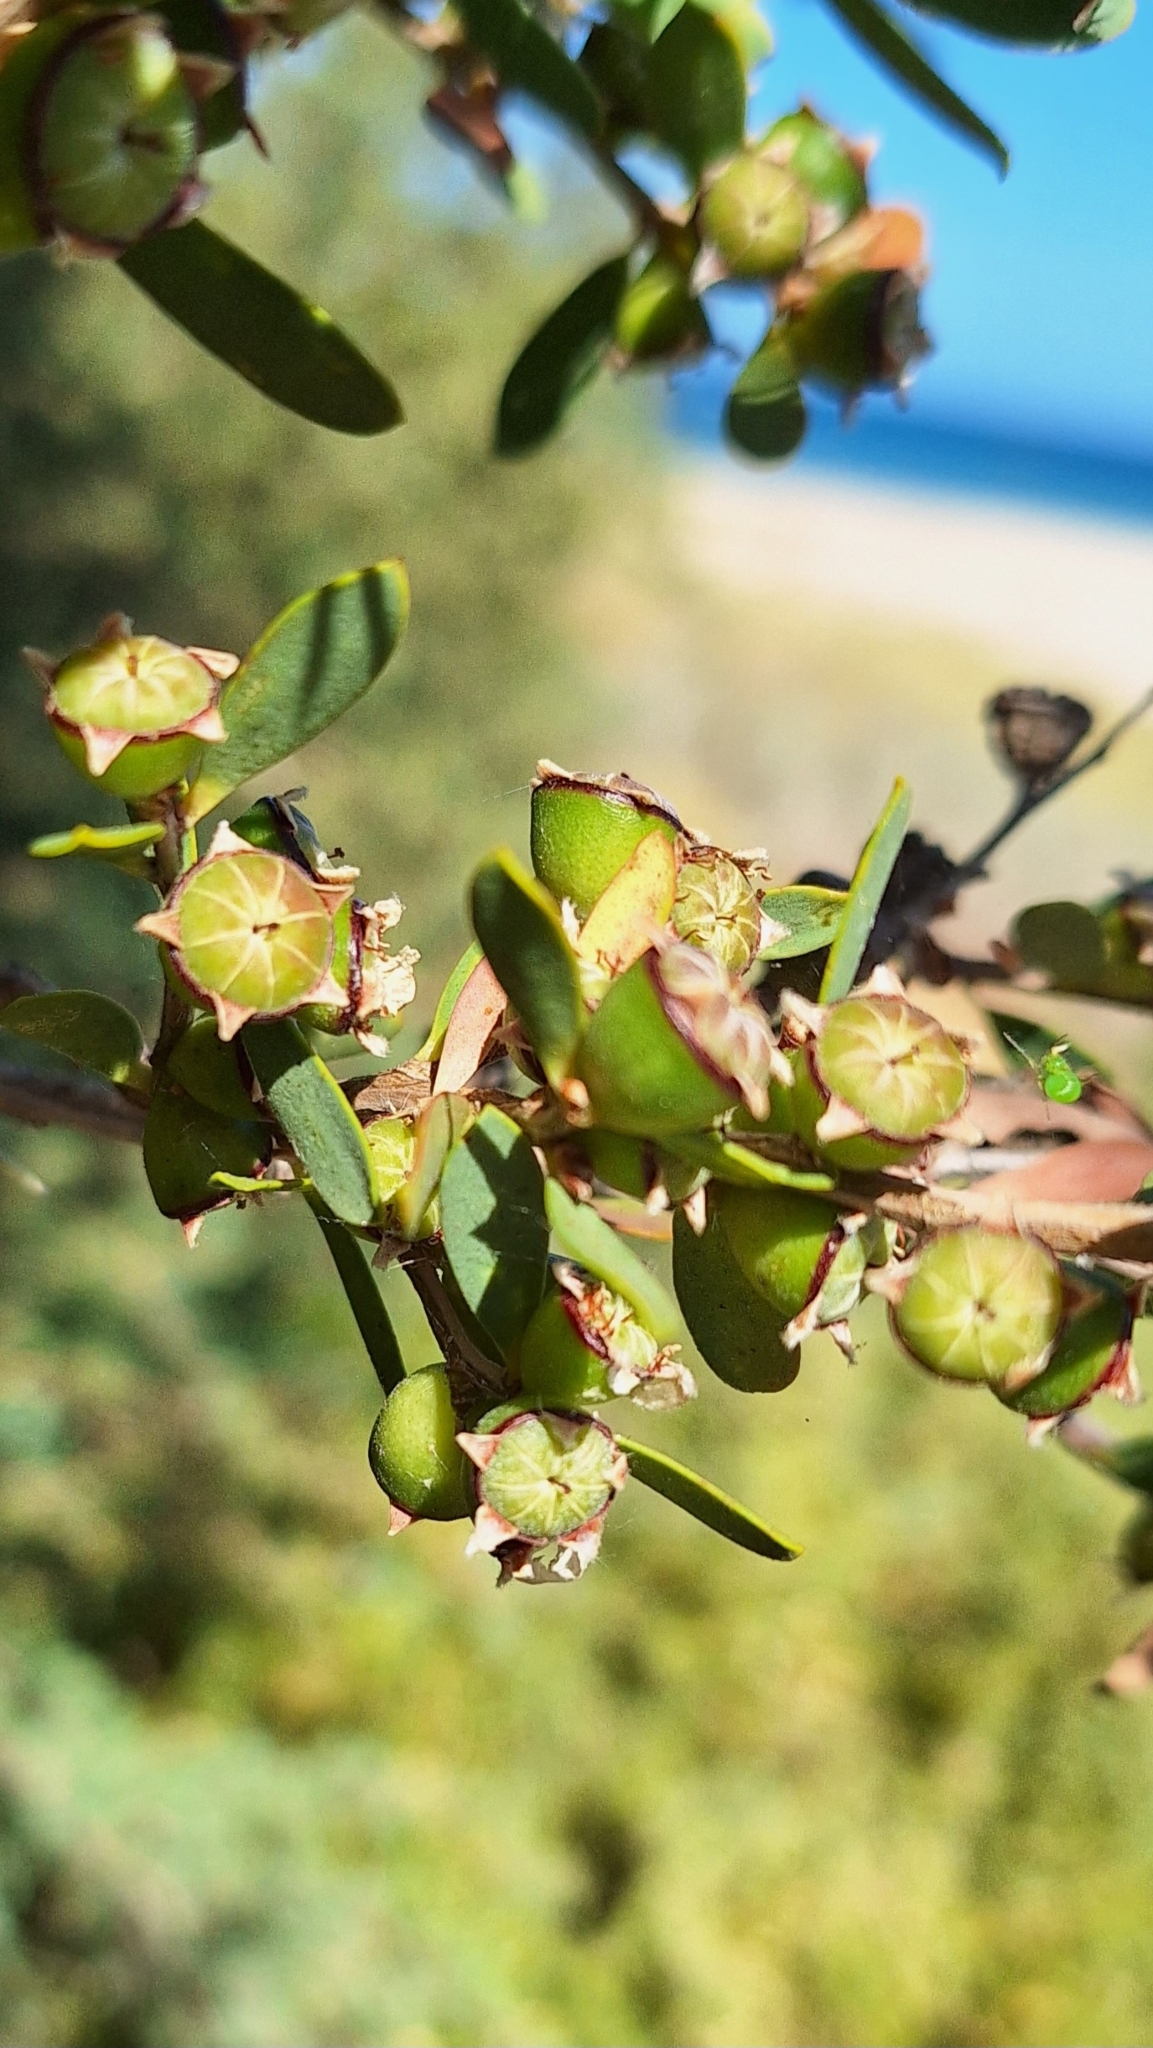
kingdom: Plantae
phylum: Tracheophyta
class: Magnoliopsida
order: Myrtales
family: Myrtaceae
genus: Leptospermum
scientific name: Leptospermum laevigatum
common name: Australian teatree
